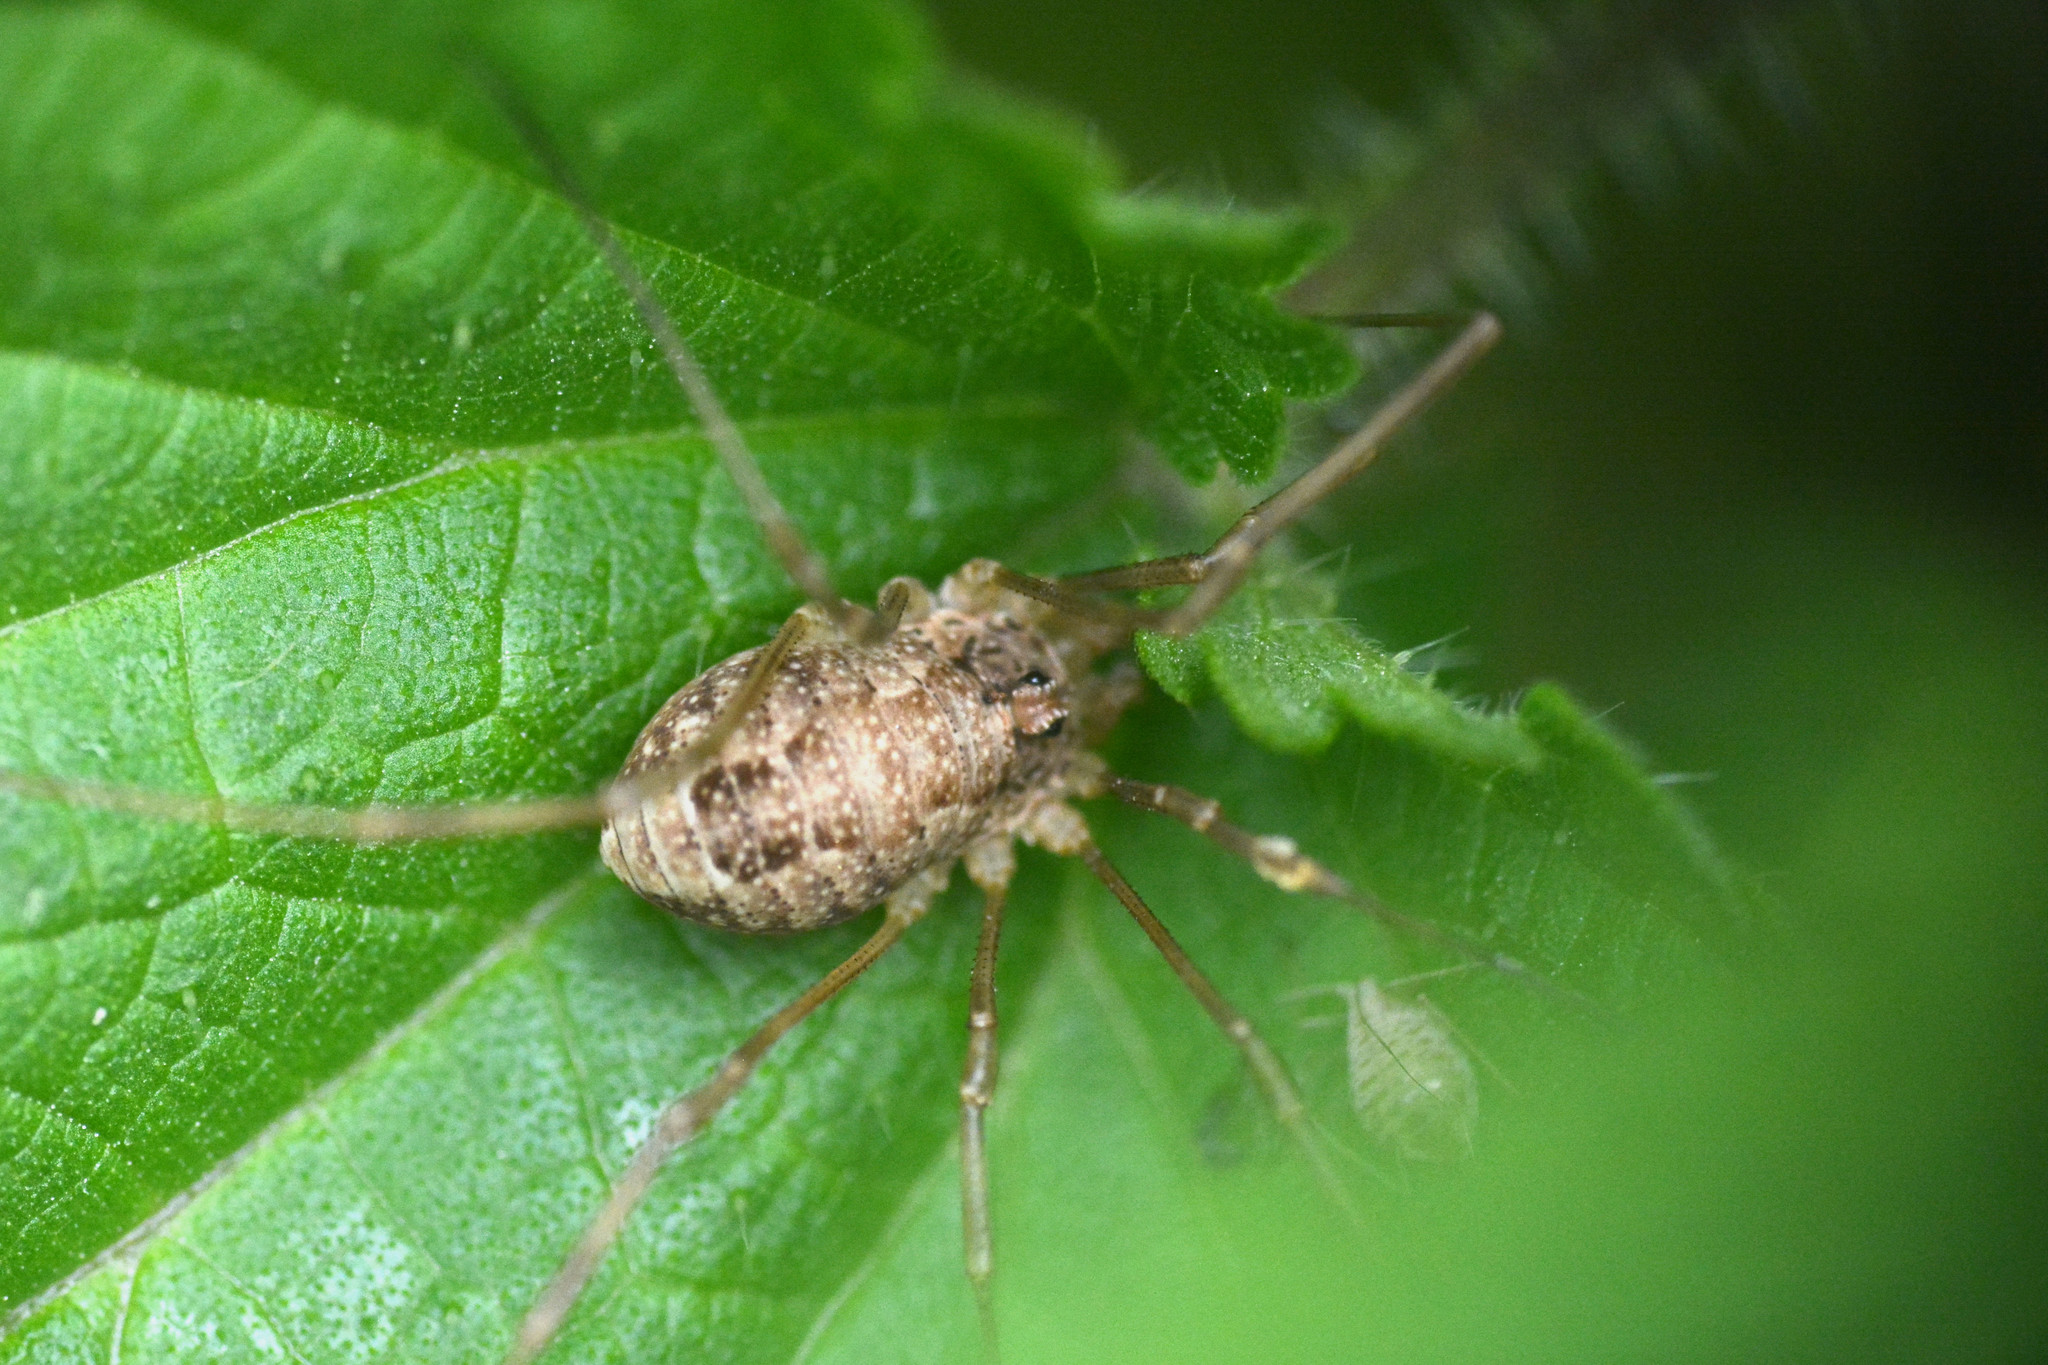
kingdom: Animalia
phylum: Arthropoda
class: Arachnida
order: Opiliones
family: Phalangiidae
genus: Rilaena
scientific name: Rilaena triangularis
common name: Spring harvestman
